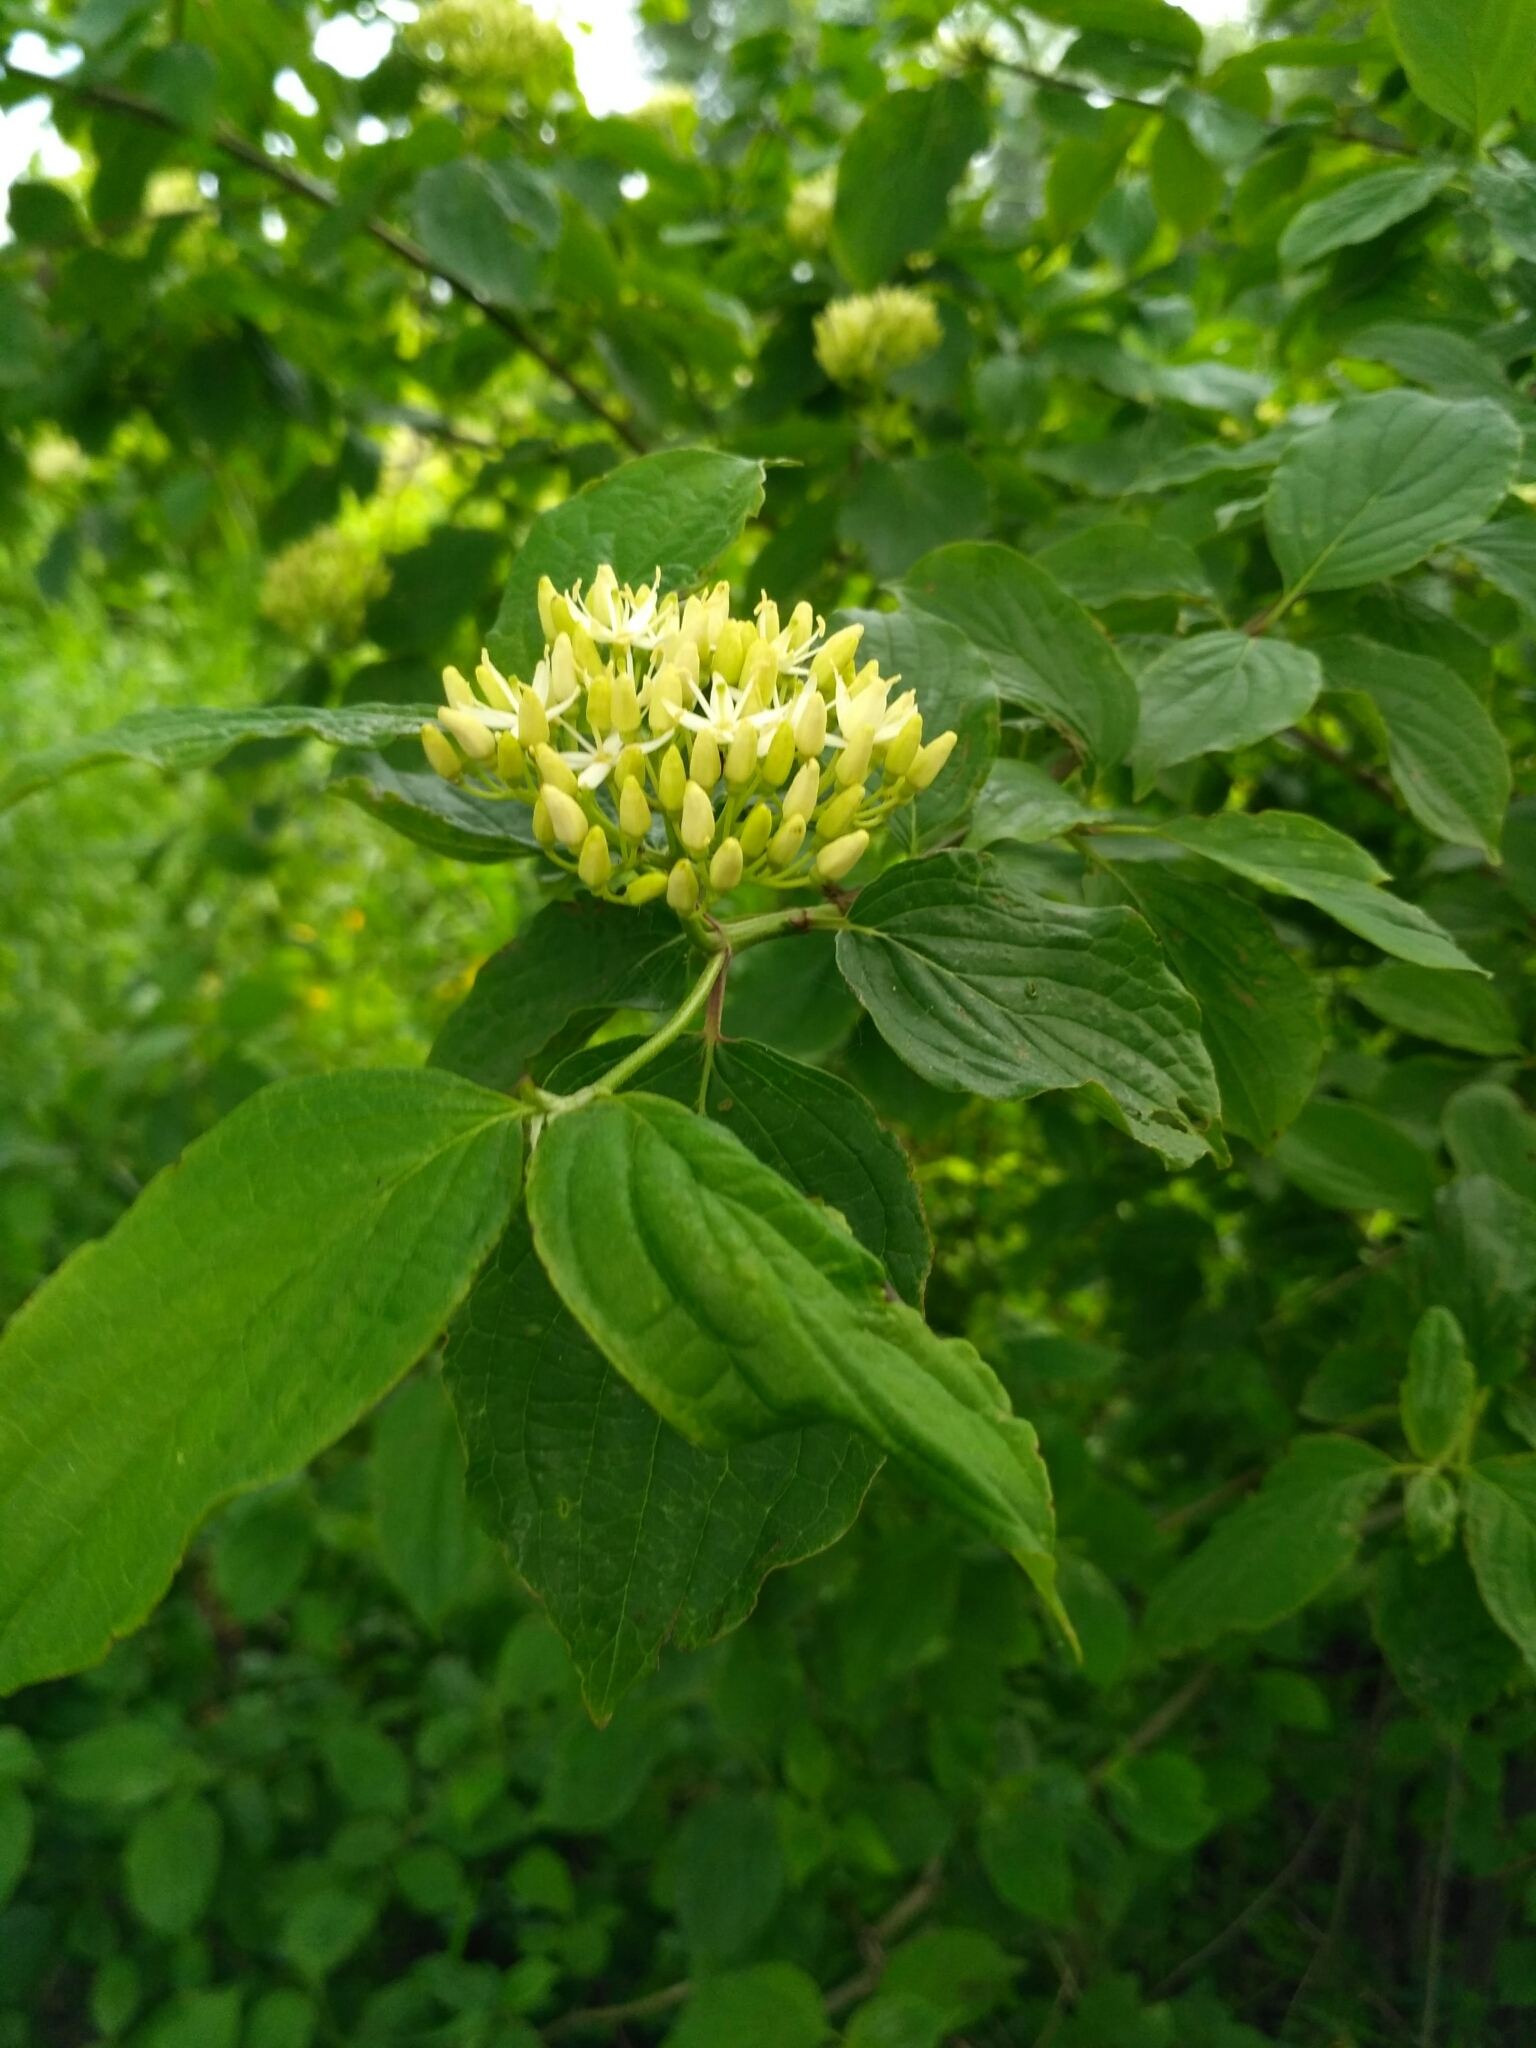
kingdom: Plantae
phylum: Tracheophyta
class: Magnoliopsida
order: Cornales
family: Cornaceae
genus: Cornus
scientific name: Cornus sanguinea
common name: Dogwood
